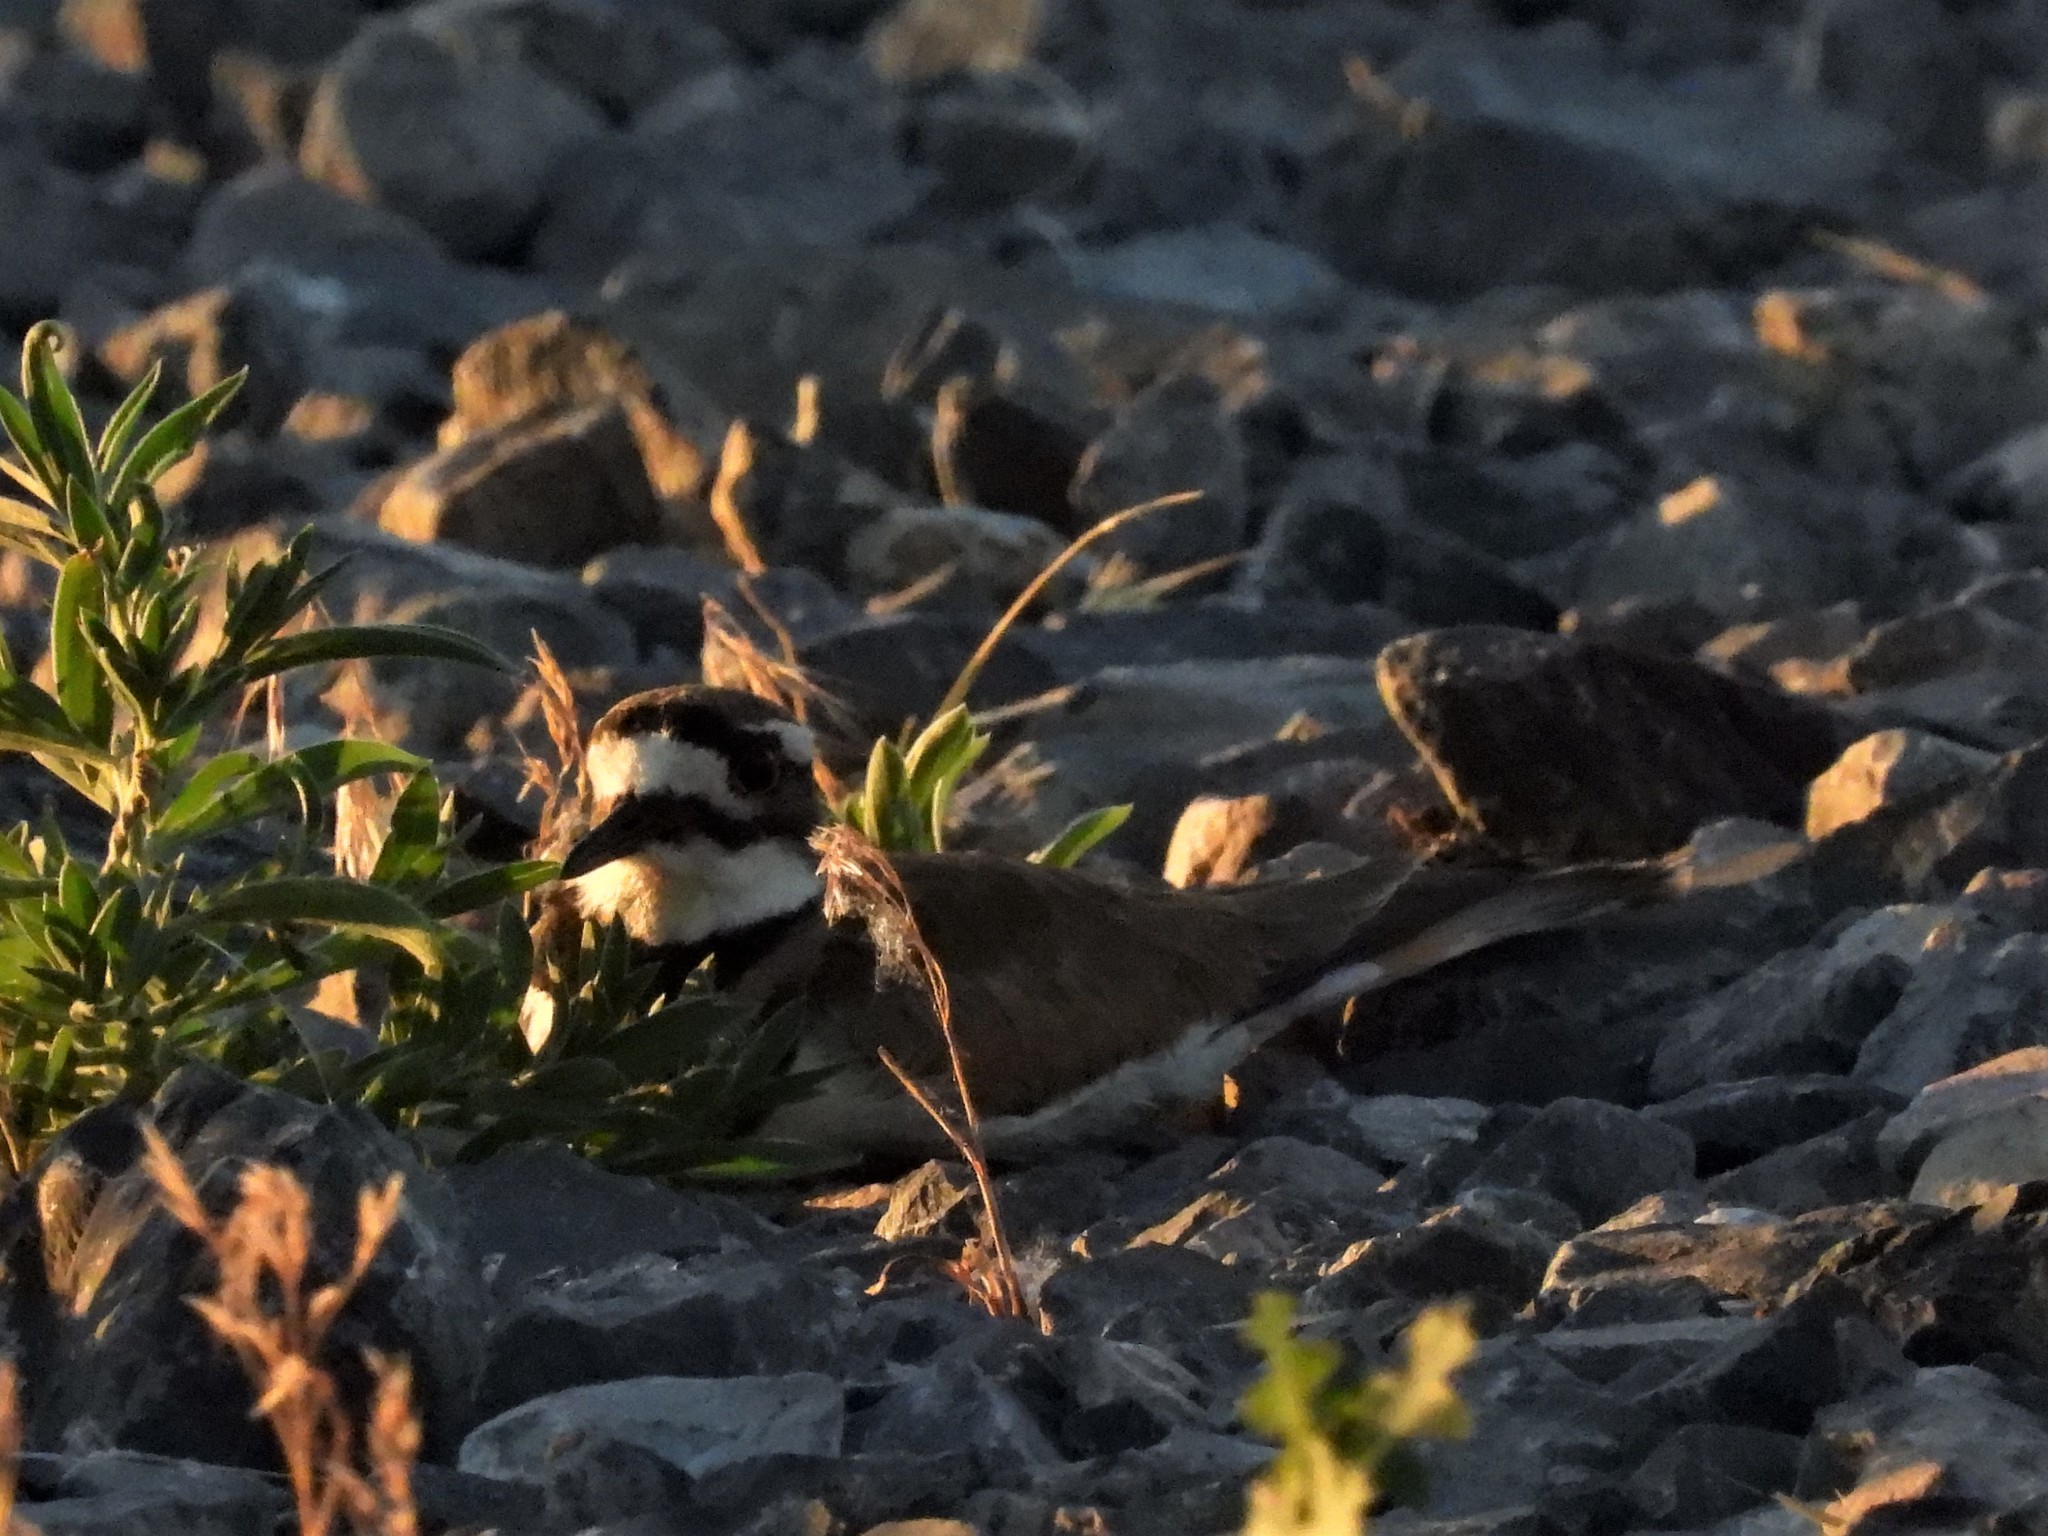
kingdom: Animalia
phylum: Chordata
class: Aves
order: Charadriiformes
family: Charadriidae
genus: Charadrius
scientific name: Charadrius vociferus
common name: Killdeer
